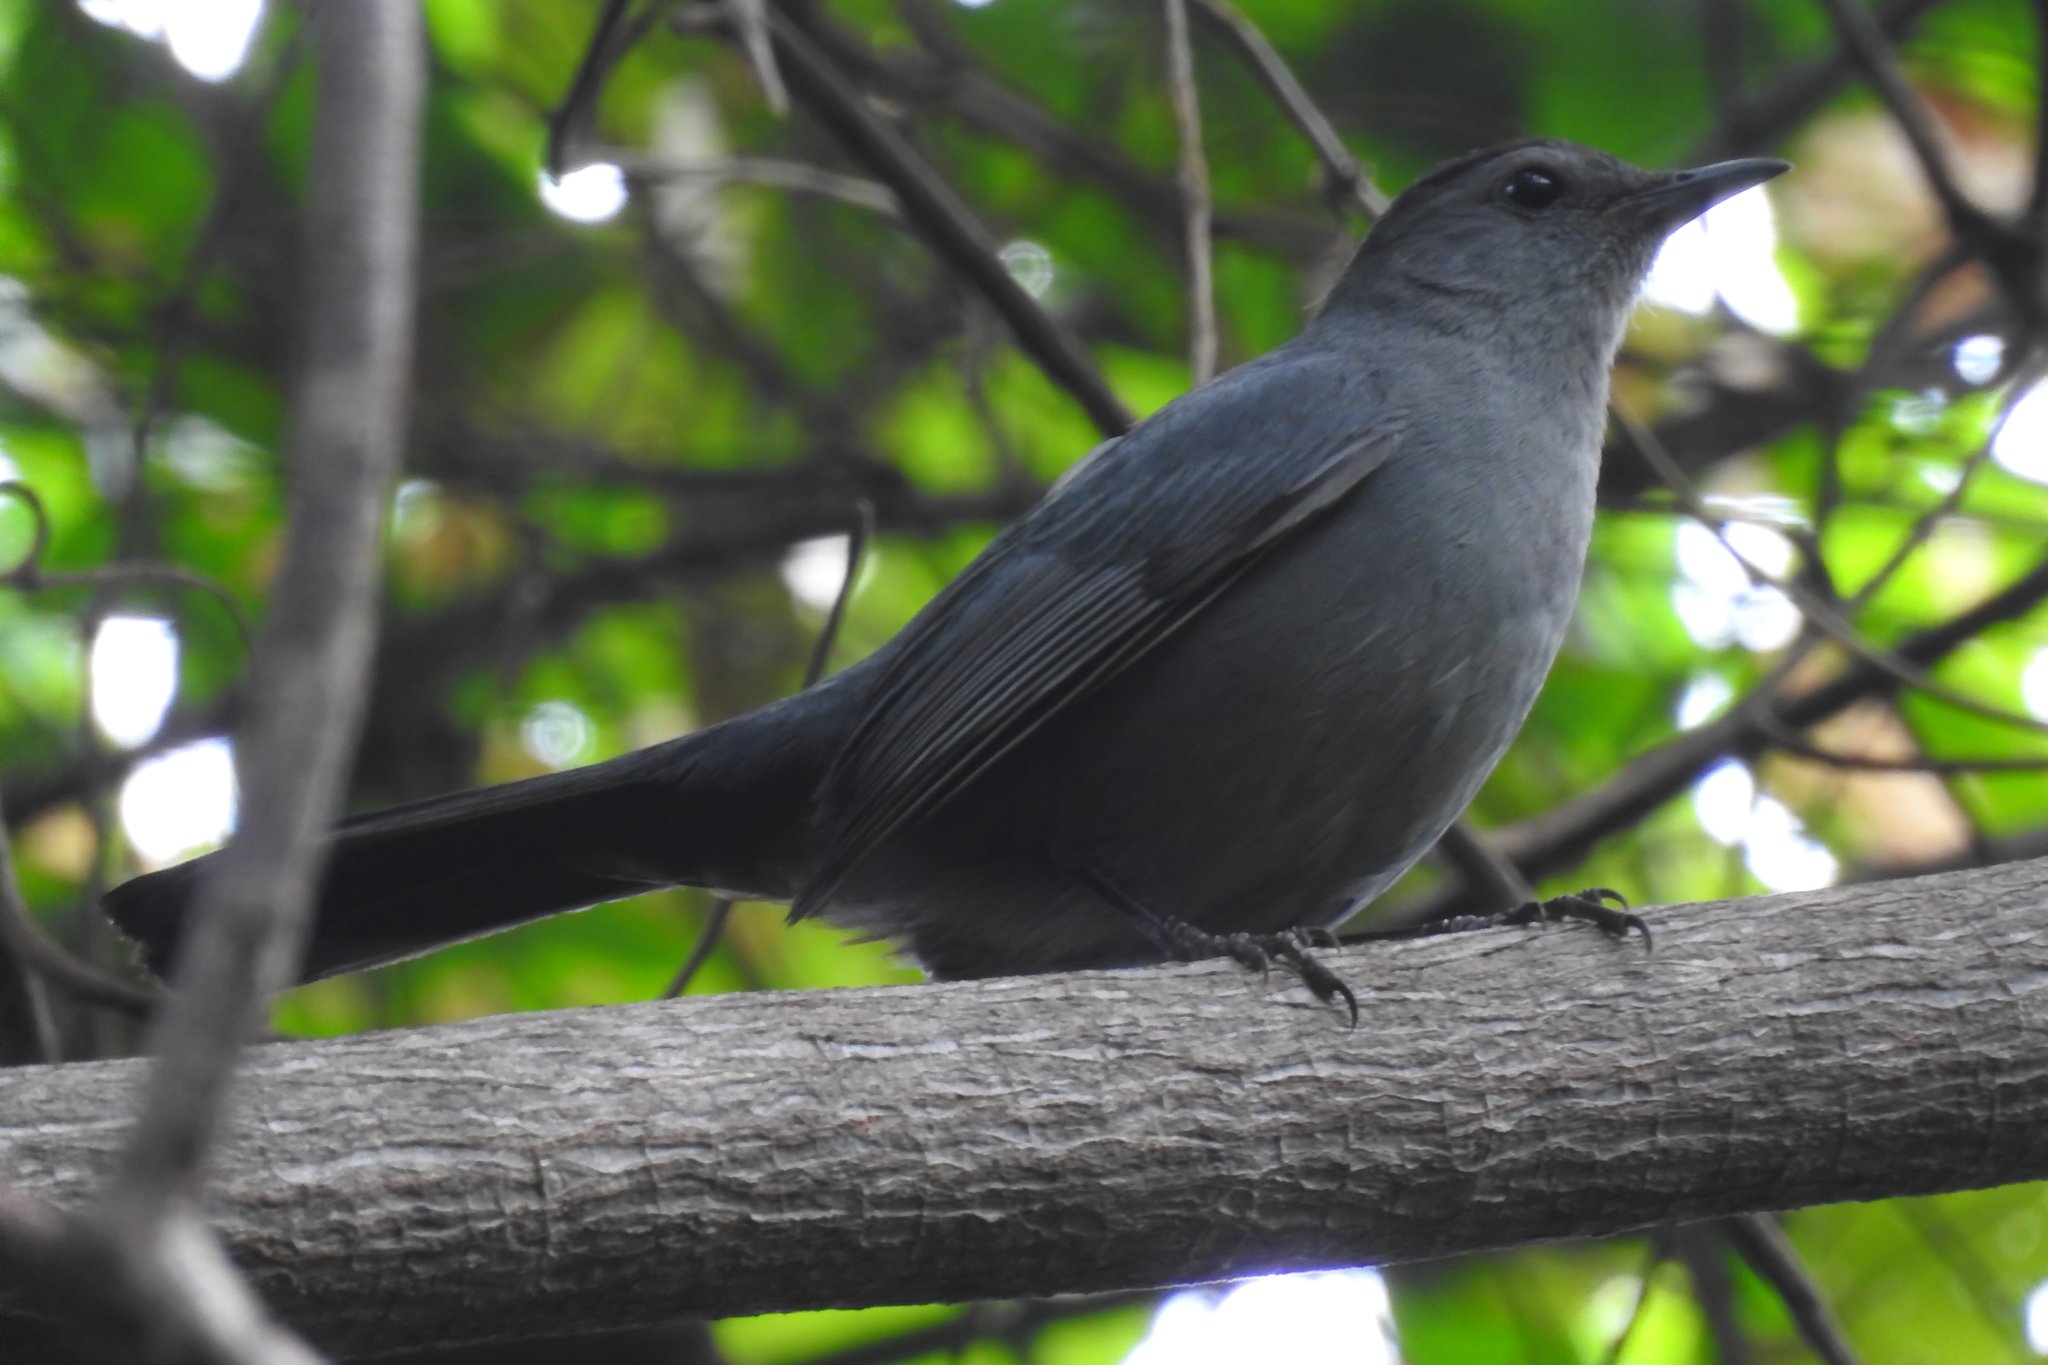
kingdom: Animalia
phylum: Chordata
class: Aves
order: Passeriformes
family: Mimidae
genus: Dumetella
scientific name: Dumetella carolinensis
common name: Gray catbird
